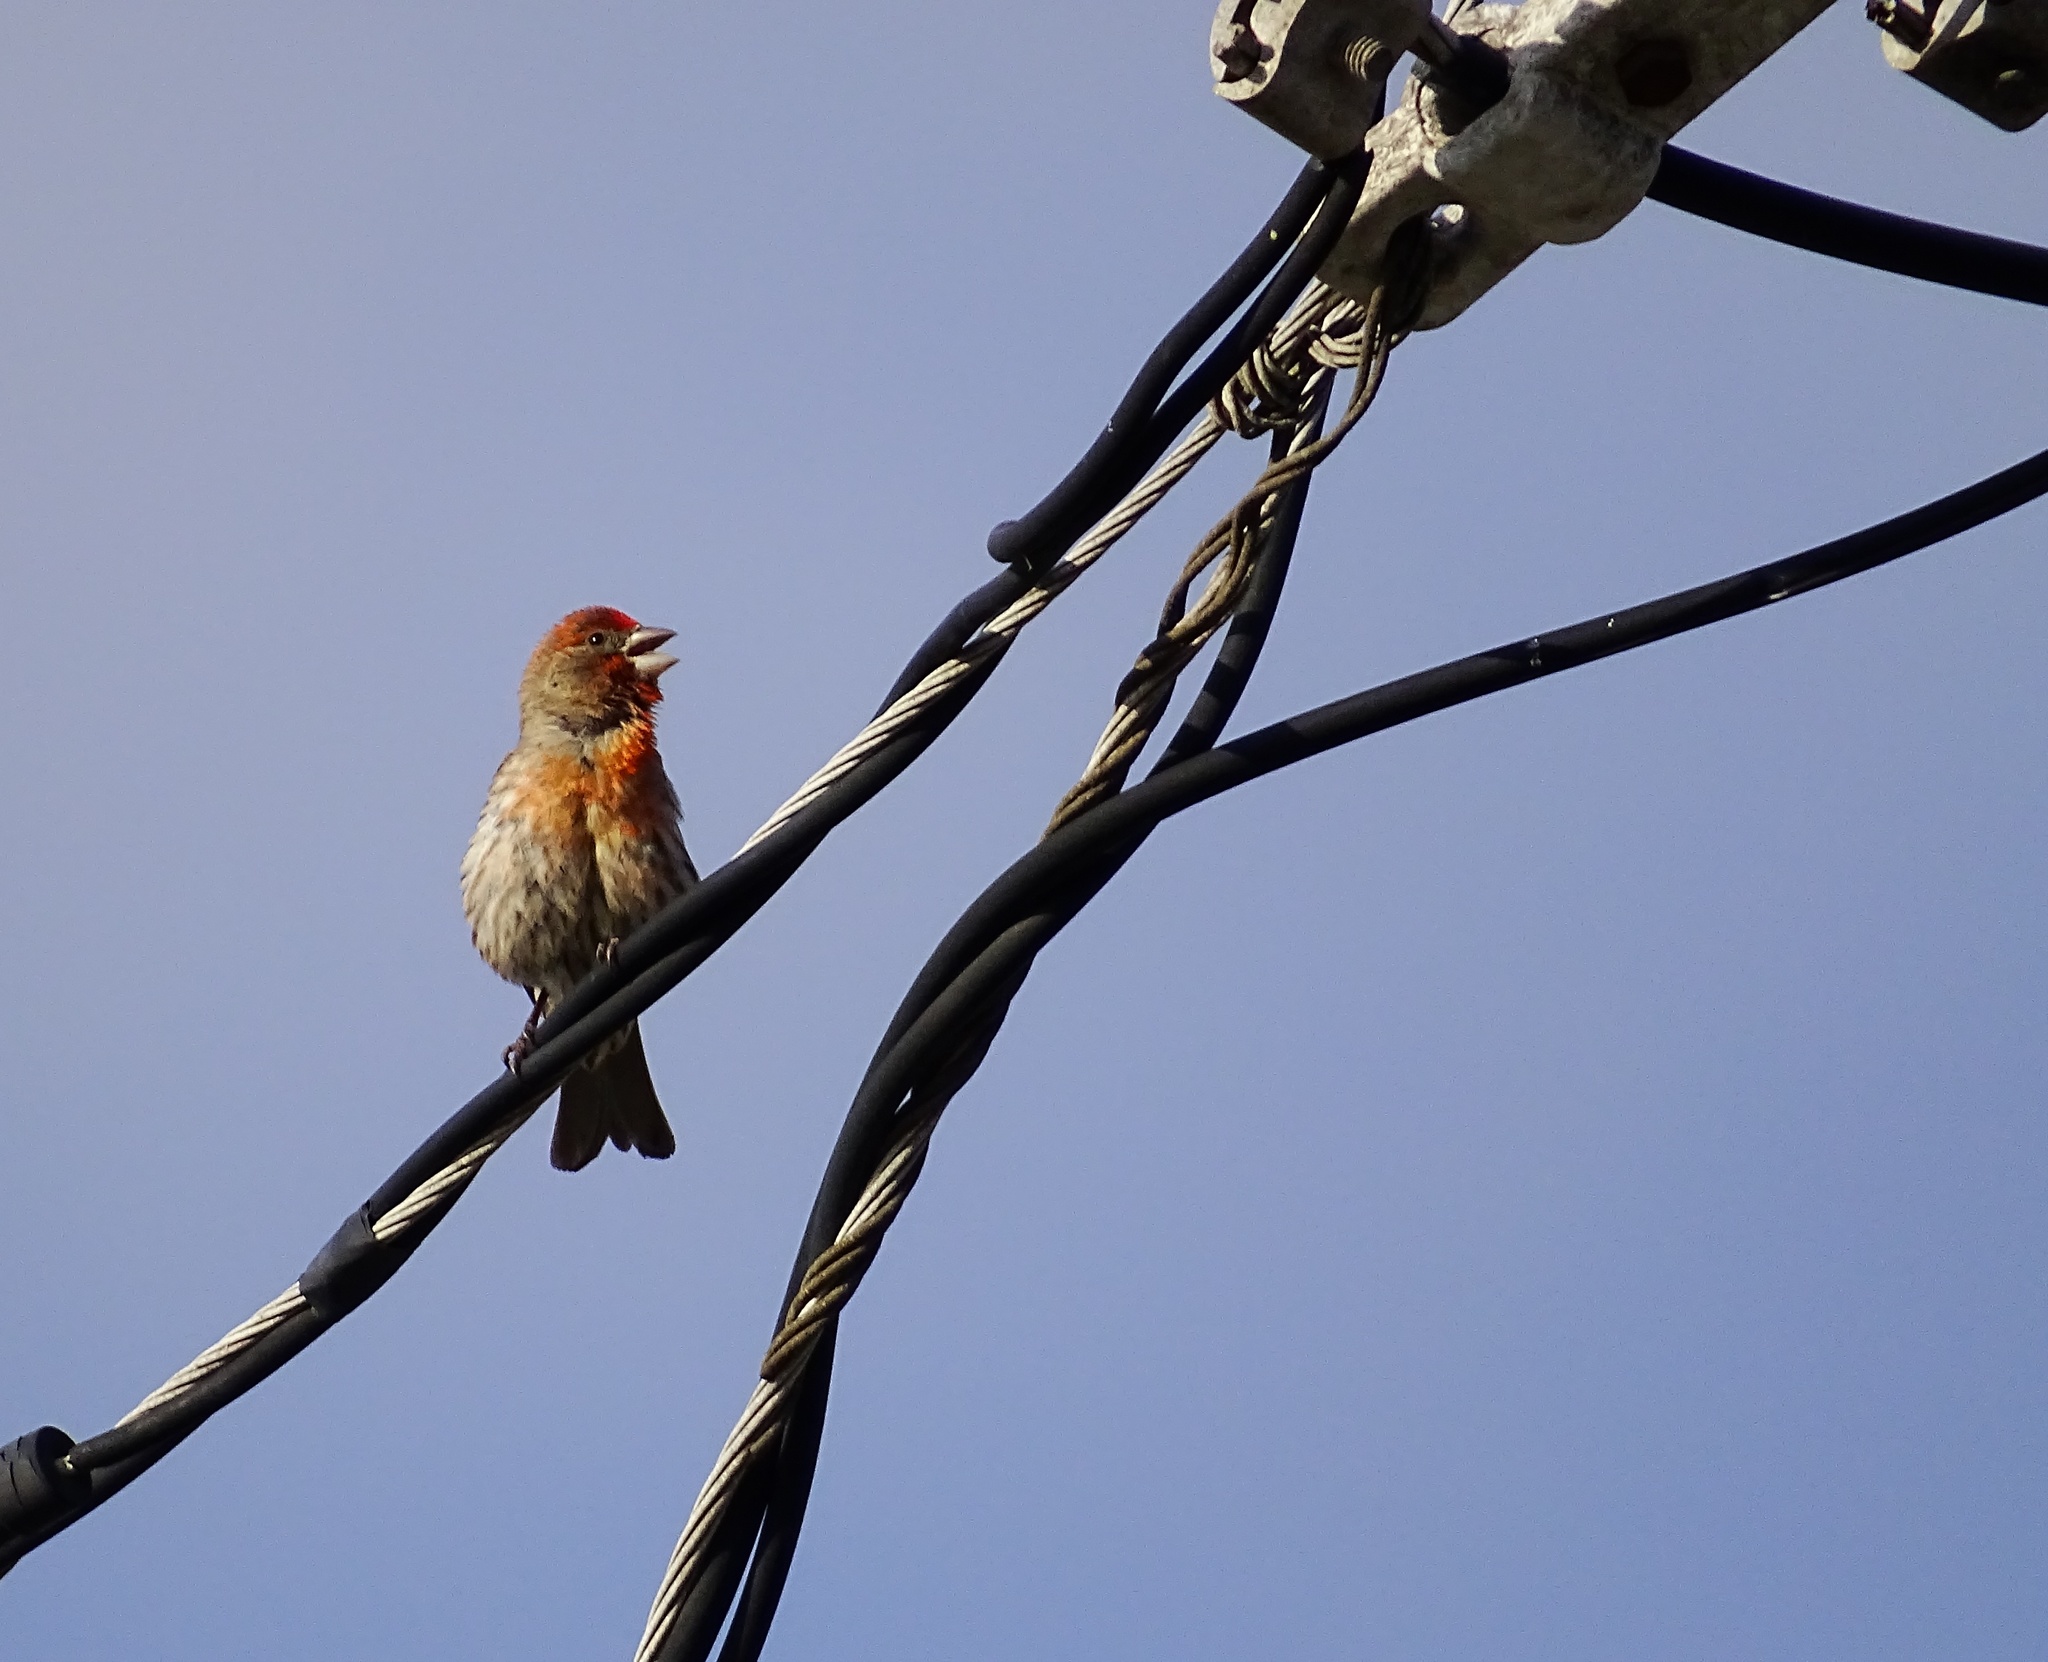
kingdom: Animalia
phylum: Chordata
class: Aves
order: Passeriformes
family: Fringillidae
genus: Haemorhous
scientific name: Haemorhous mexicanus
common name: House finch
